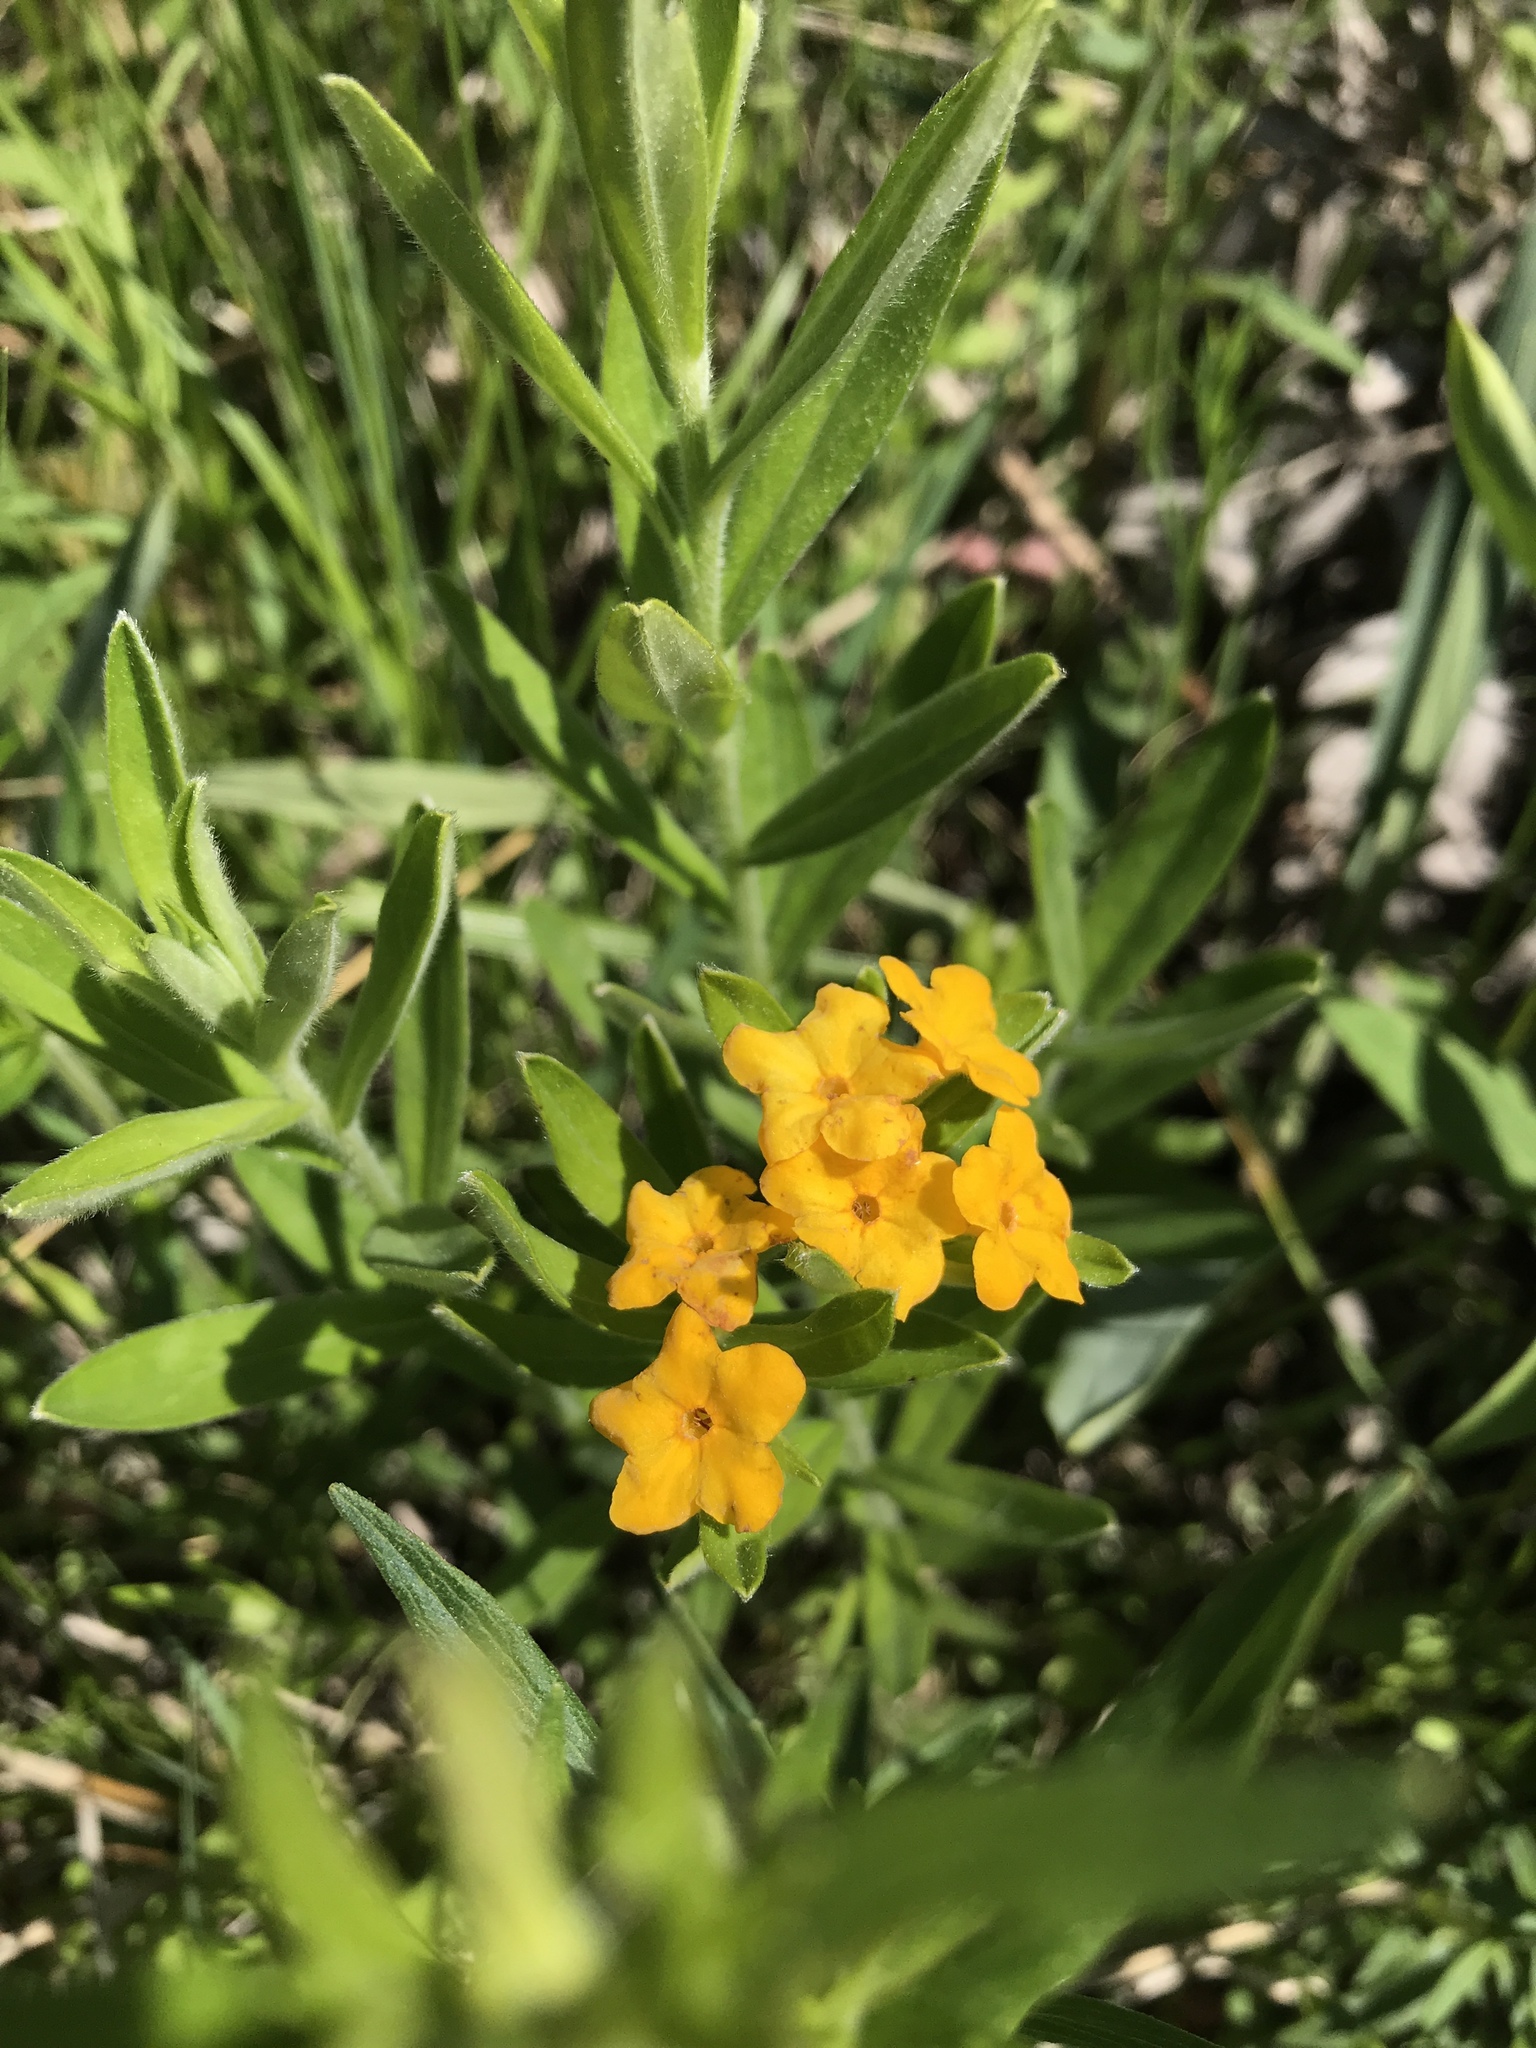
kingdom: Plantae
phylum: Tracheophyta
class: Magnoliopsida
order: Boraginales
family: Boraginaceae
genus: Lithospermum
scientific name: Lithospermum canescens
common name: Hoary puccoon
